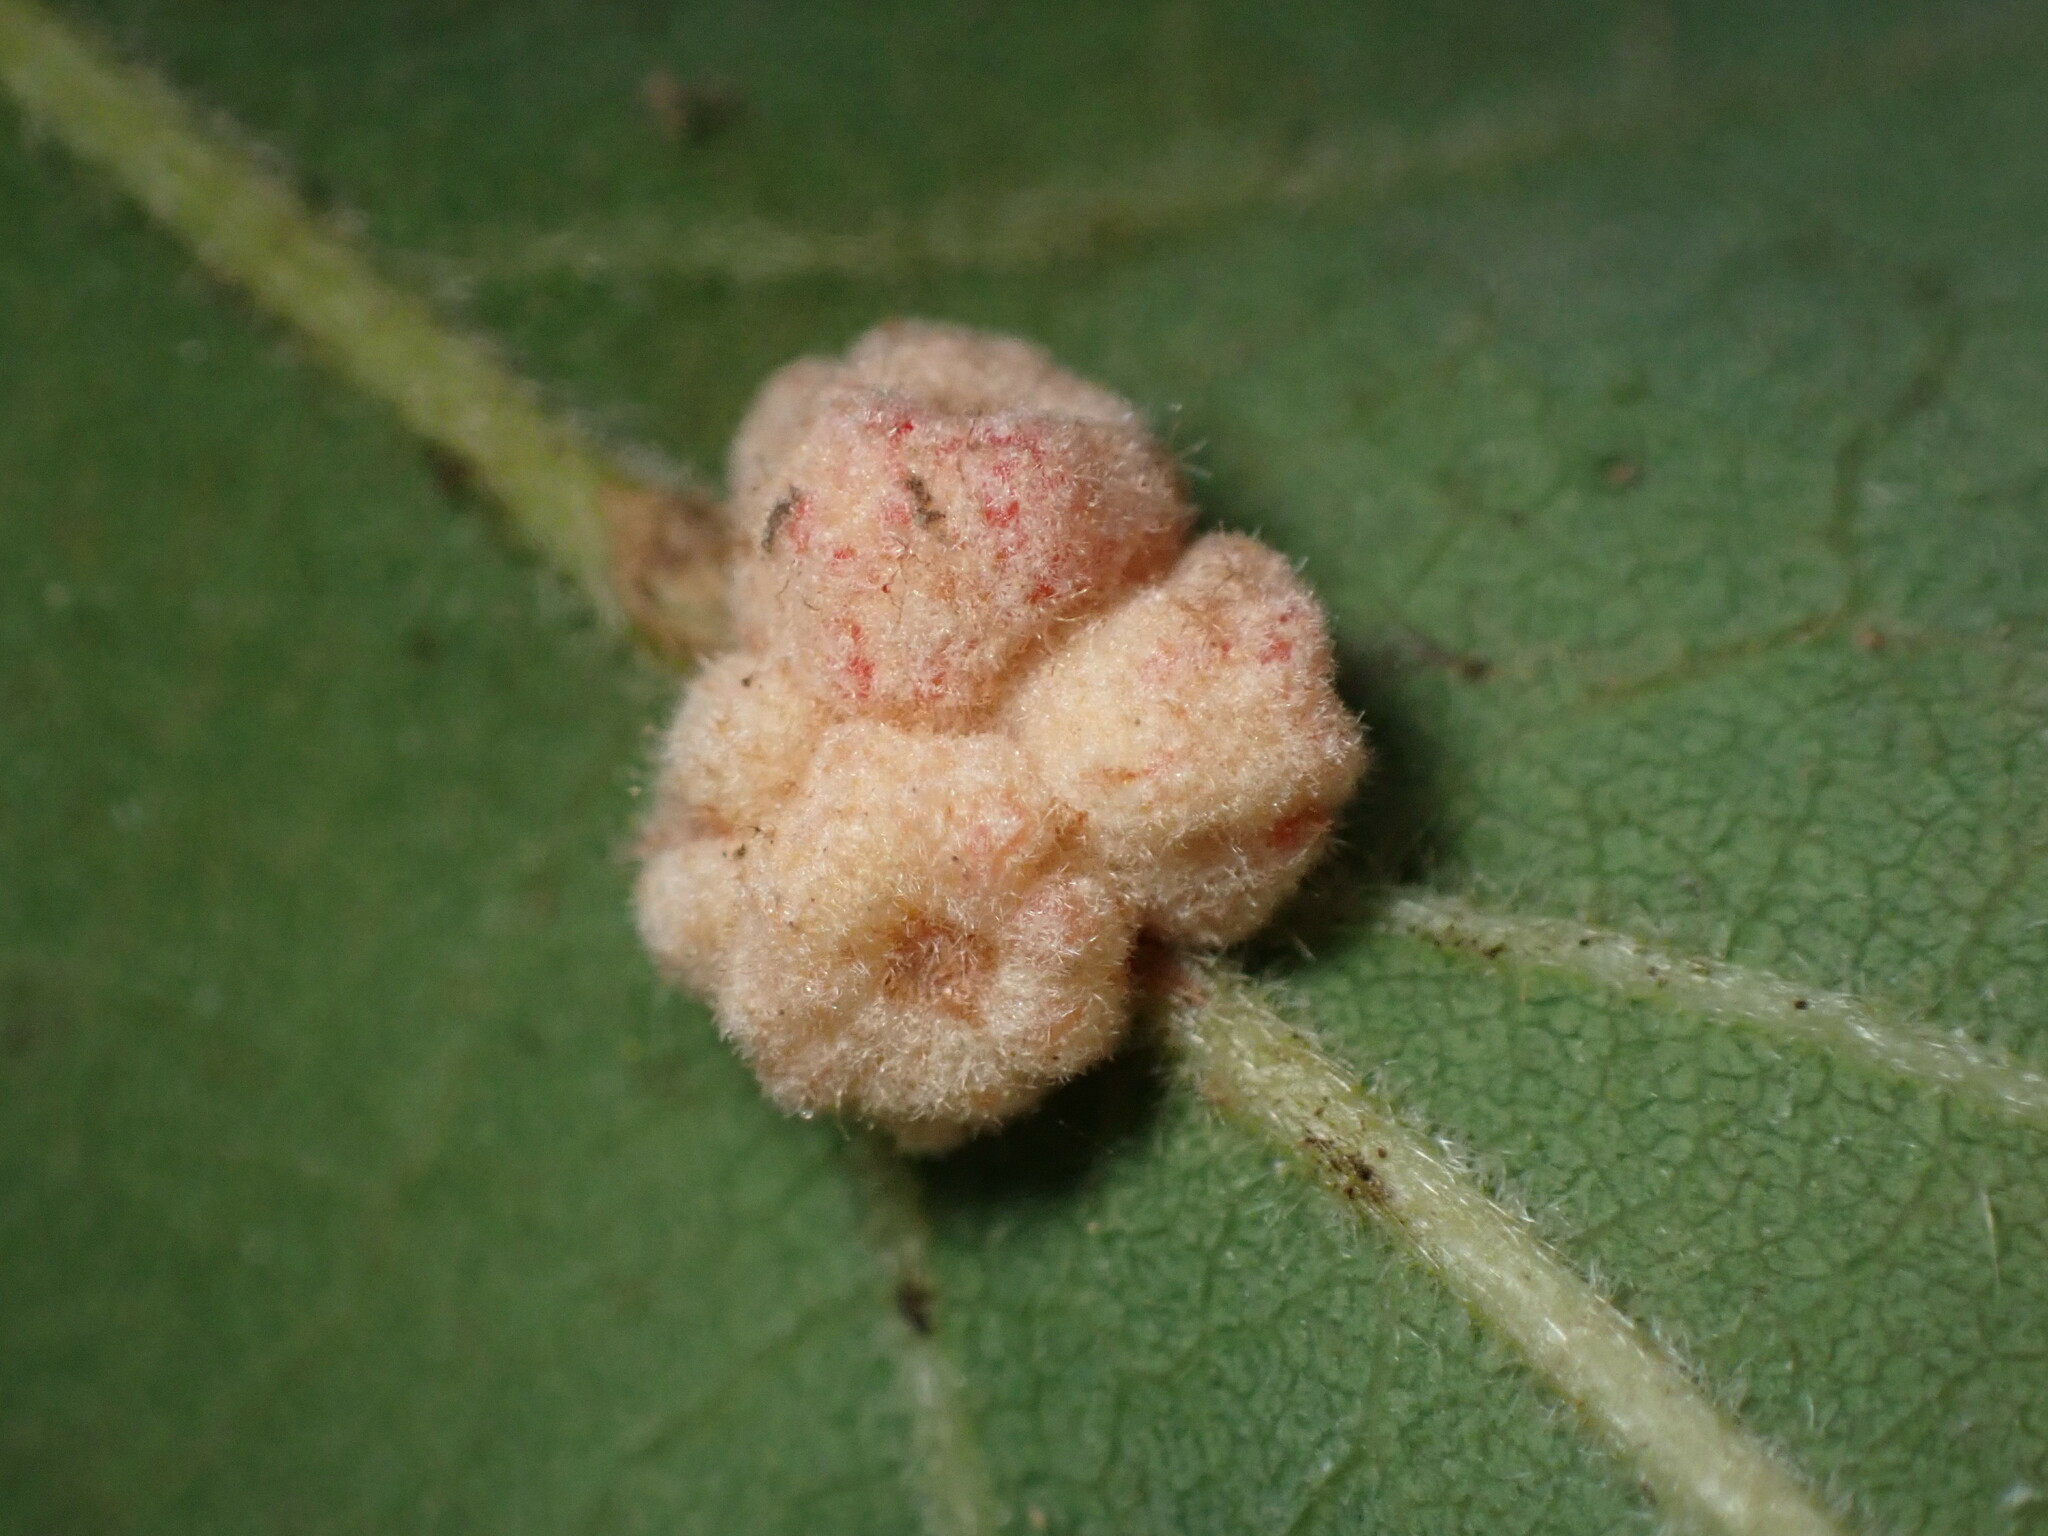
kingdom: Animalia
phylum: Arthropoda
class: Insecta
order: Hymenoptera
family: Cynipidae
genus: Andricus
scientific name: Andricus
